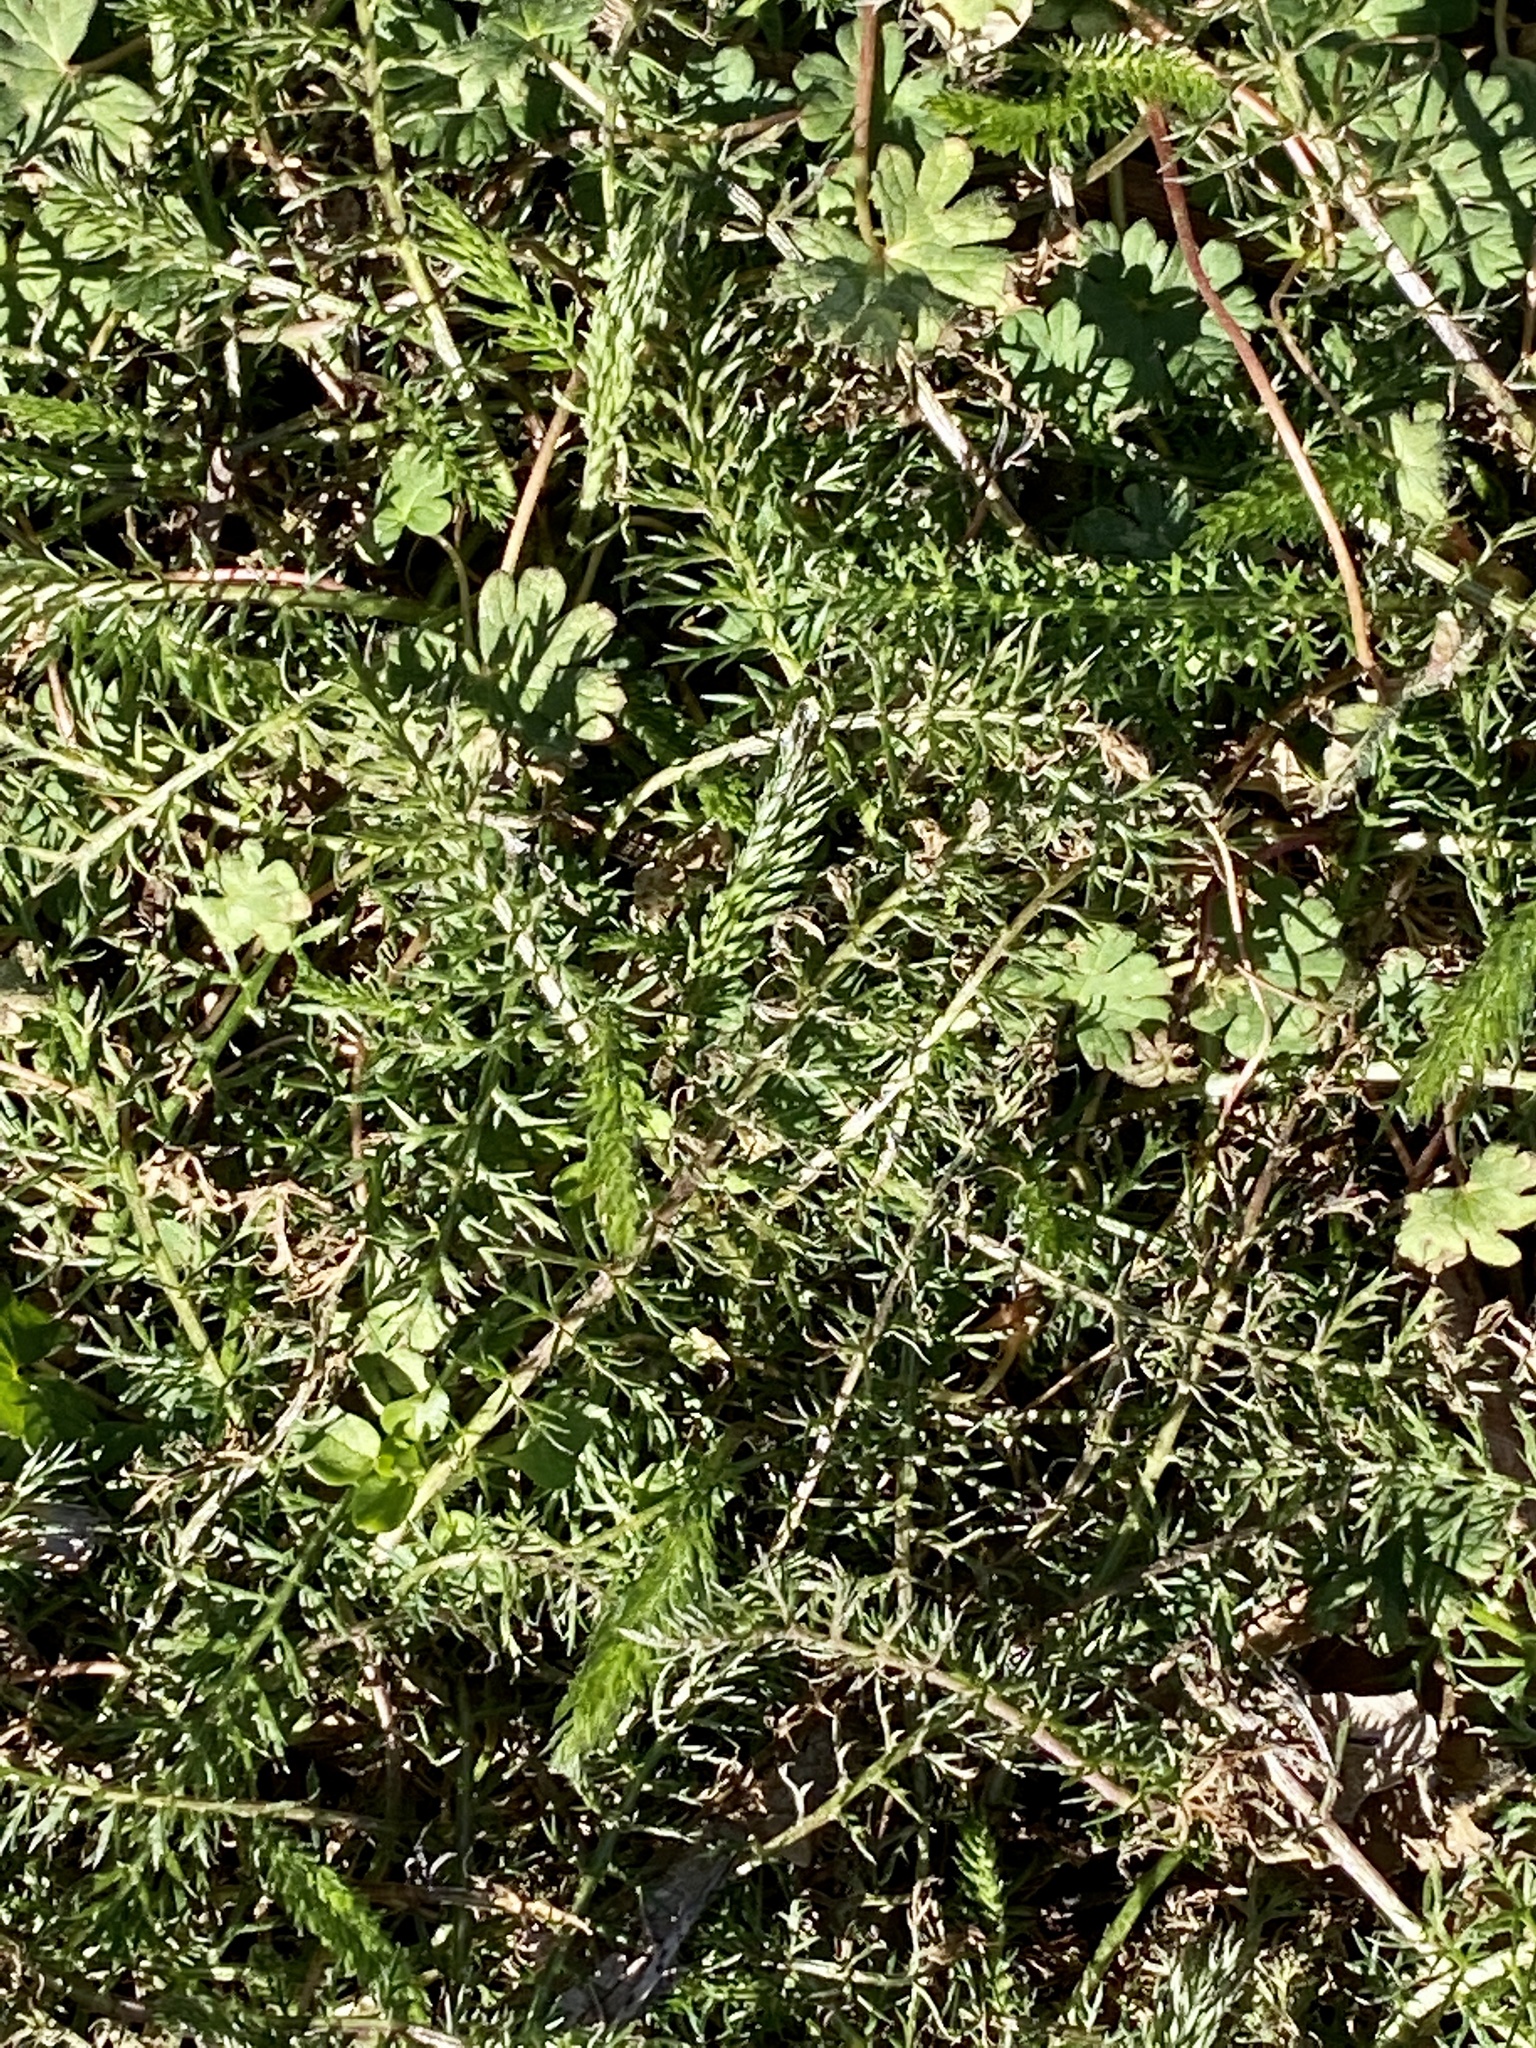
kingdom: Plantae
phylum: Tracheophyta
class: Magnoliopsida
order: Asterales
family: Asteraceae
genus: Achillea
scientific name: Achillea millefolium
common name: Yarrow
